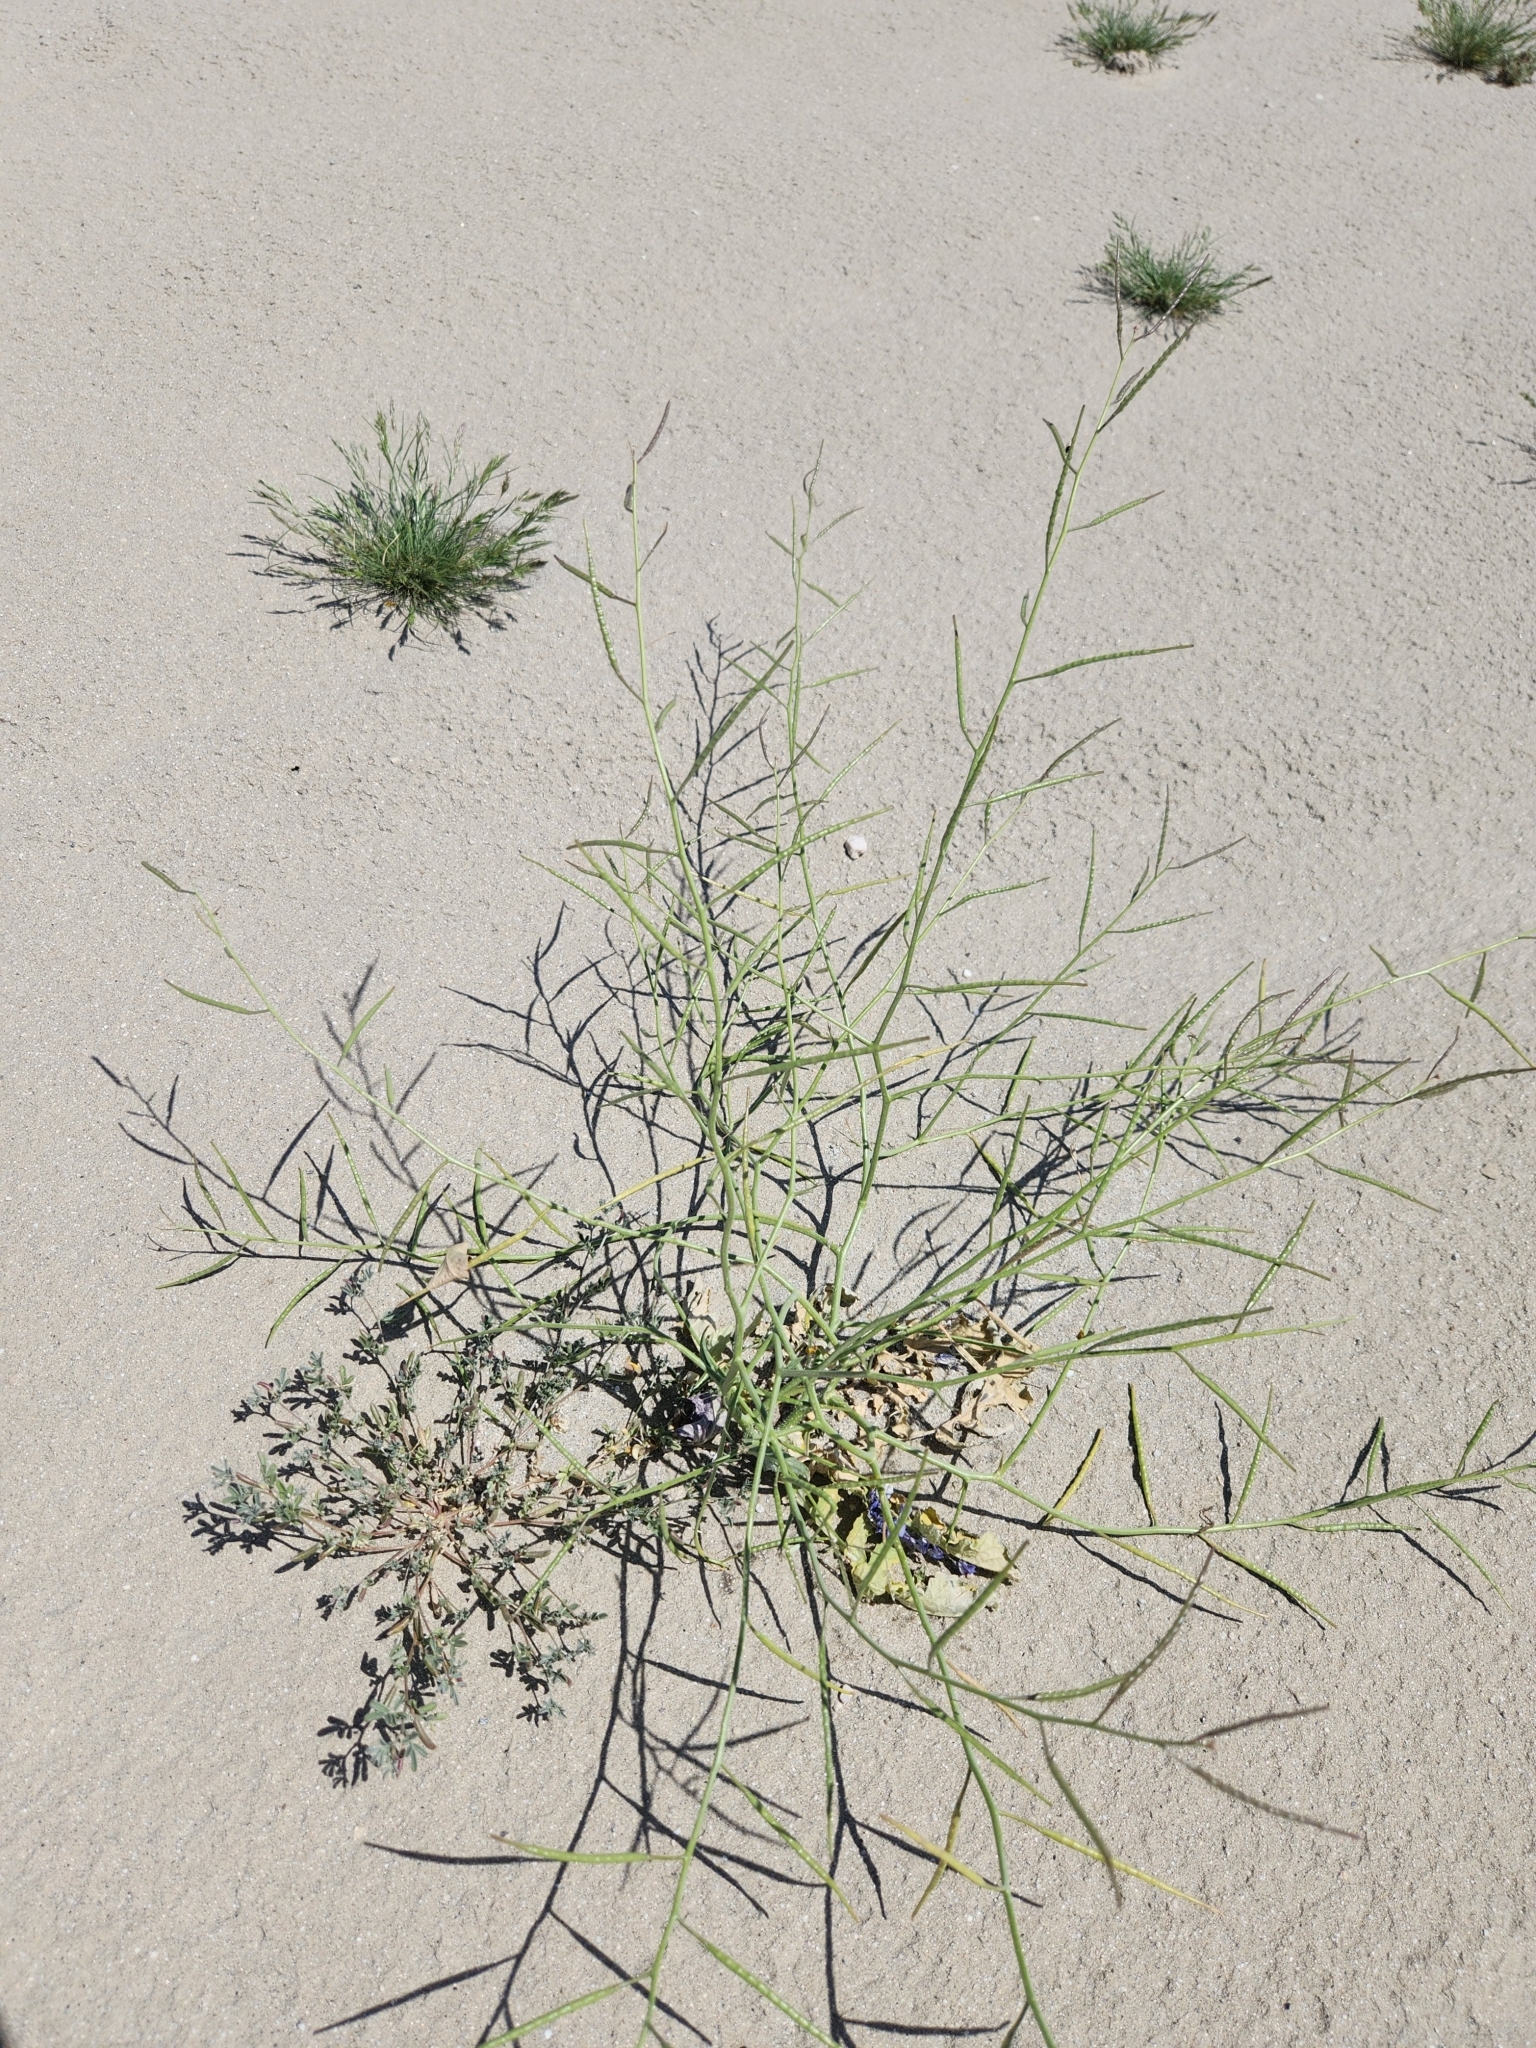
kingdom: Plantae
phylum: Tracheophyta
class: Magnoliopsida
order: Brassicales
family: Brassicaceae
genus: Brassica
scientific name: Brassica tournefortii
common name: Pale cabbage
